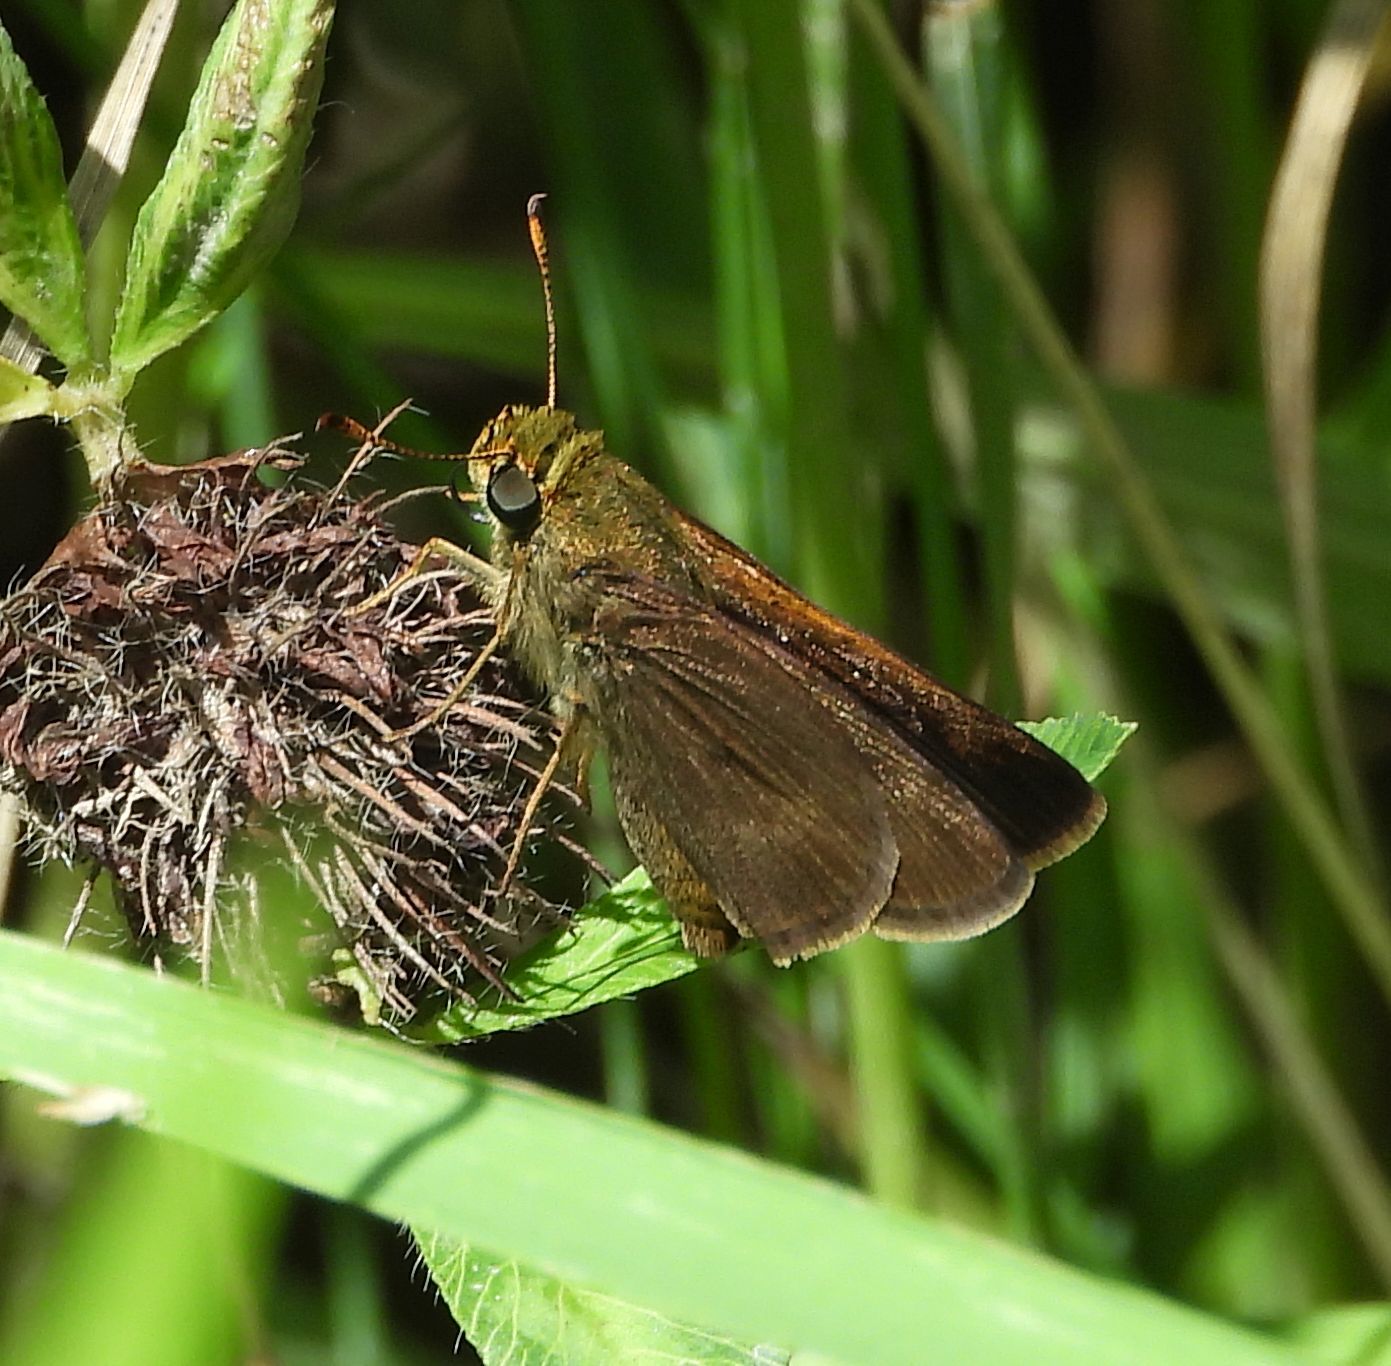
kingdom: Animalia
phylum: Arthropoda
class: Insecta
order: Lepidoptera
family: Hesperiidae
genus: Euphyes
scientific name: Euphyes vestris
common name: Dun skipper
